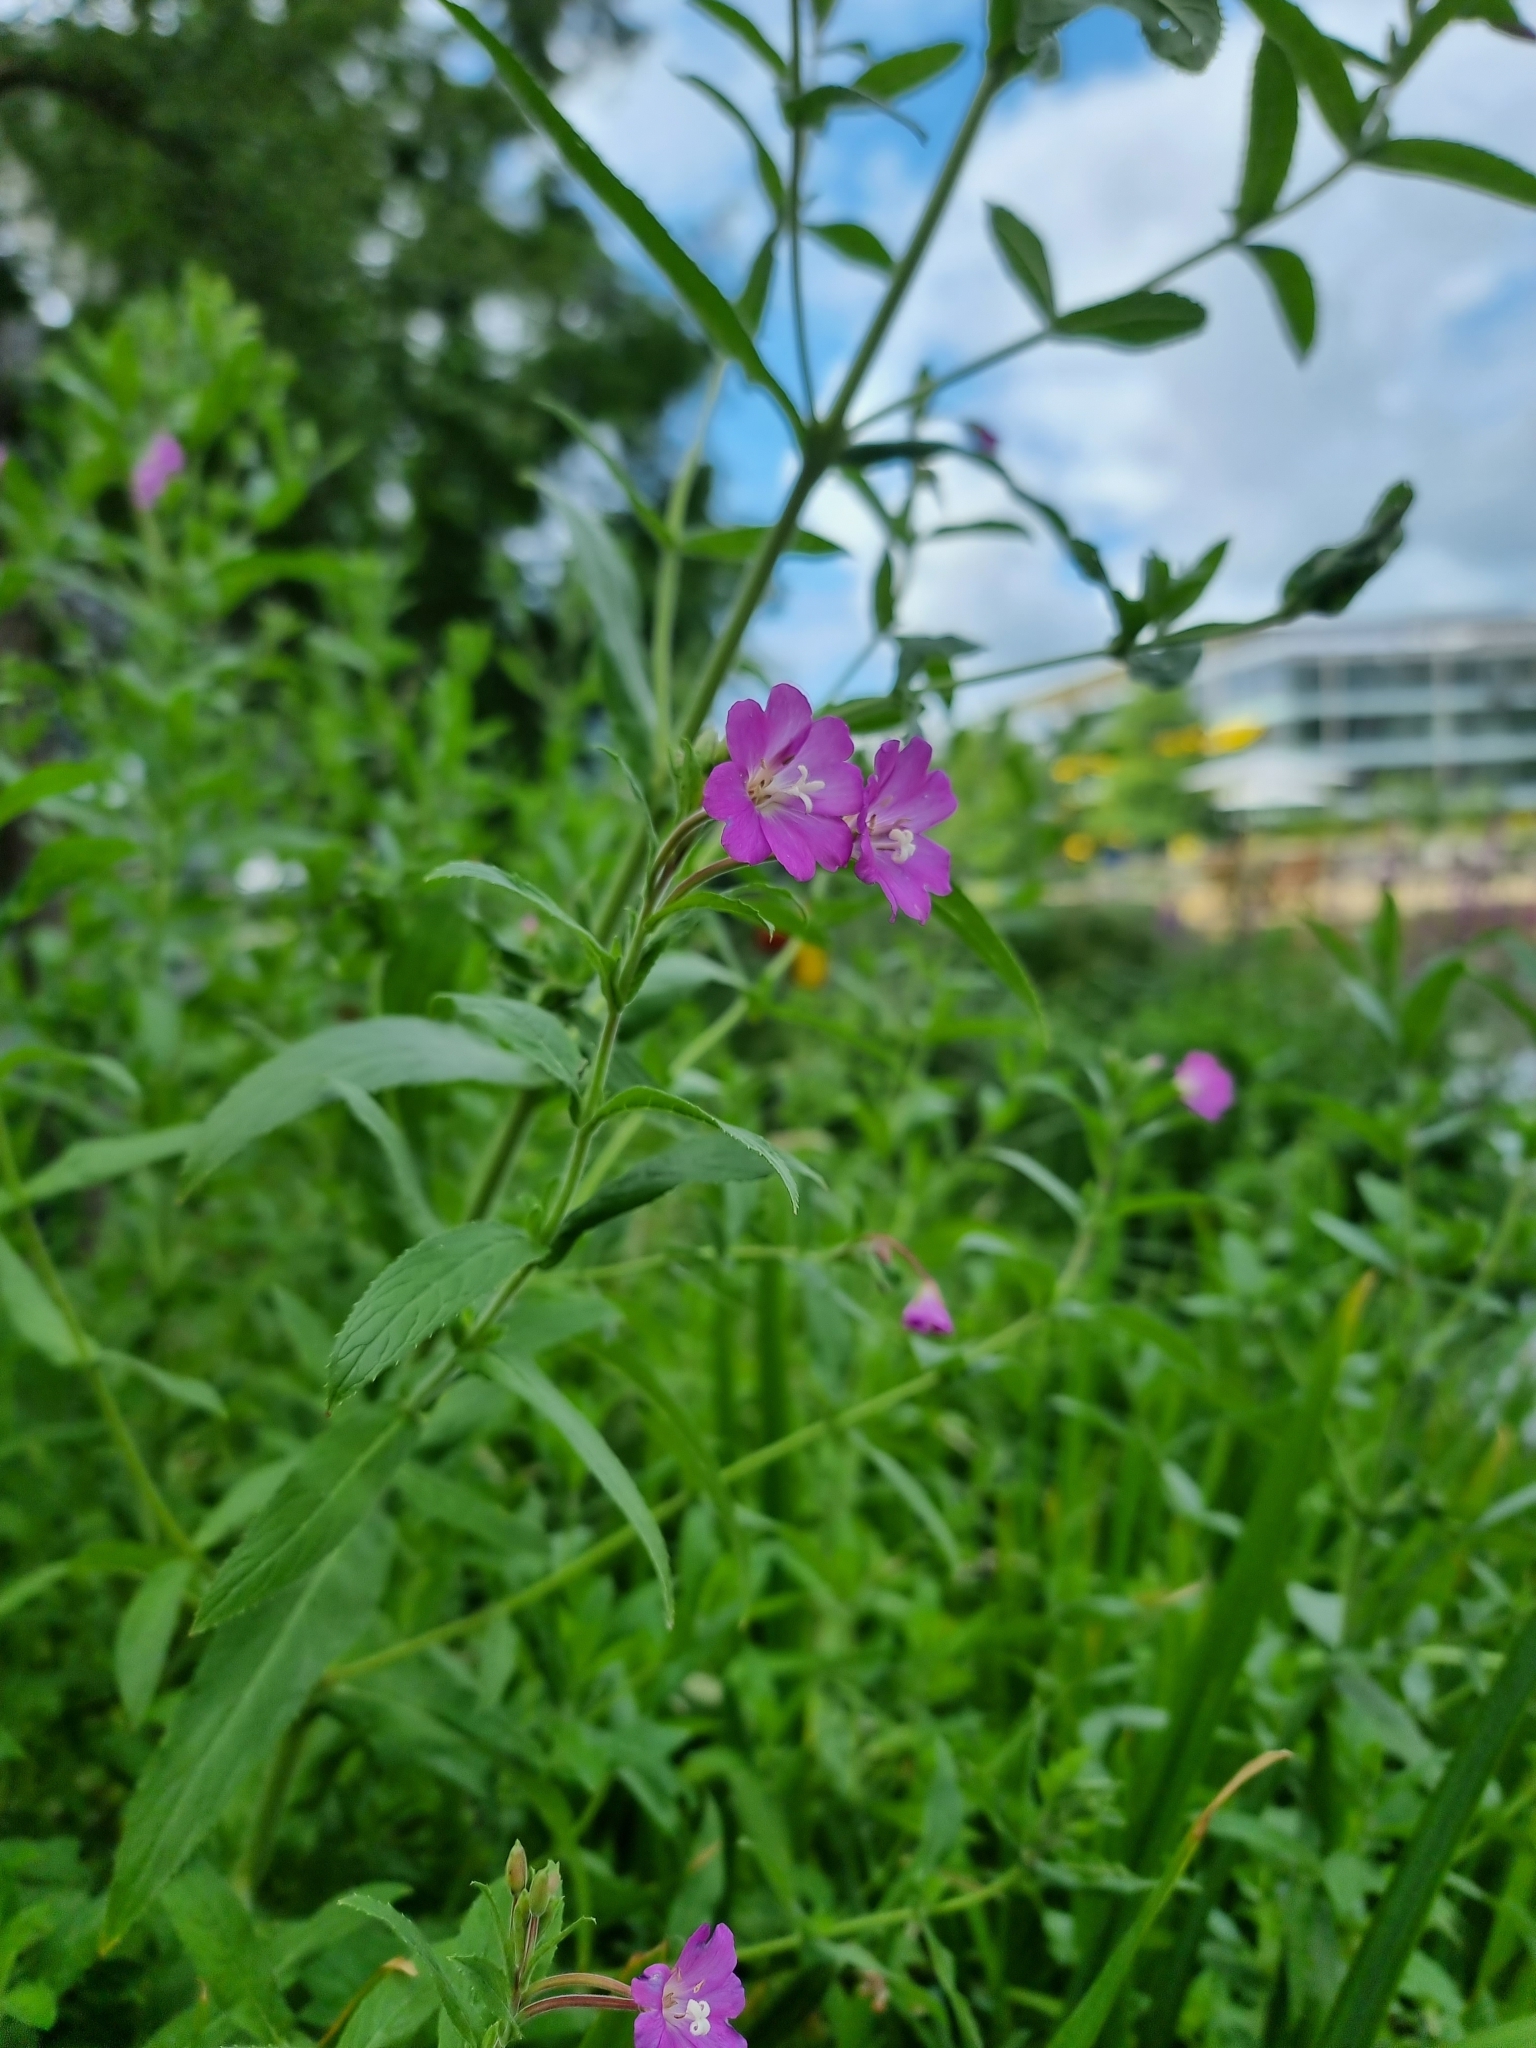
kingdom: Plantae
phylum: Tracheophyta
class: Magnoliopsida
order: Myrtales
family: Onagraceae
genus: Epilobium
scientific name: Epilobium hirsutum
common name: Great willowherb
